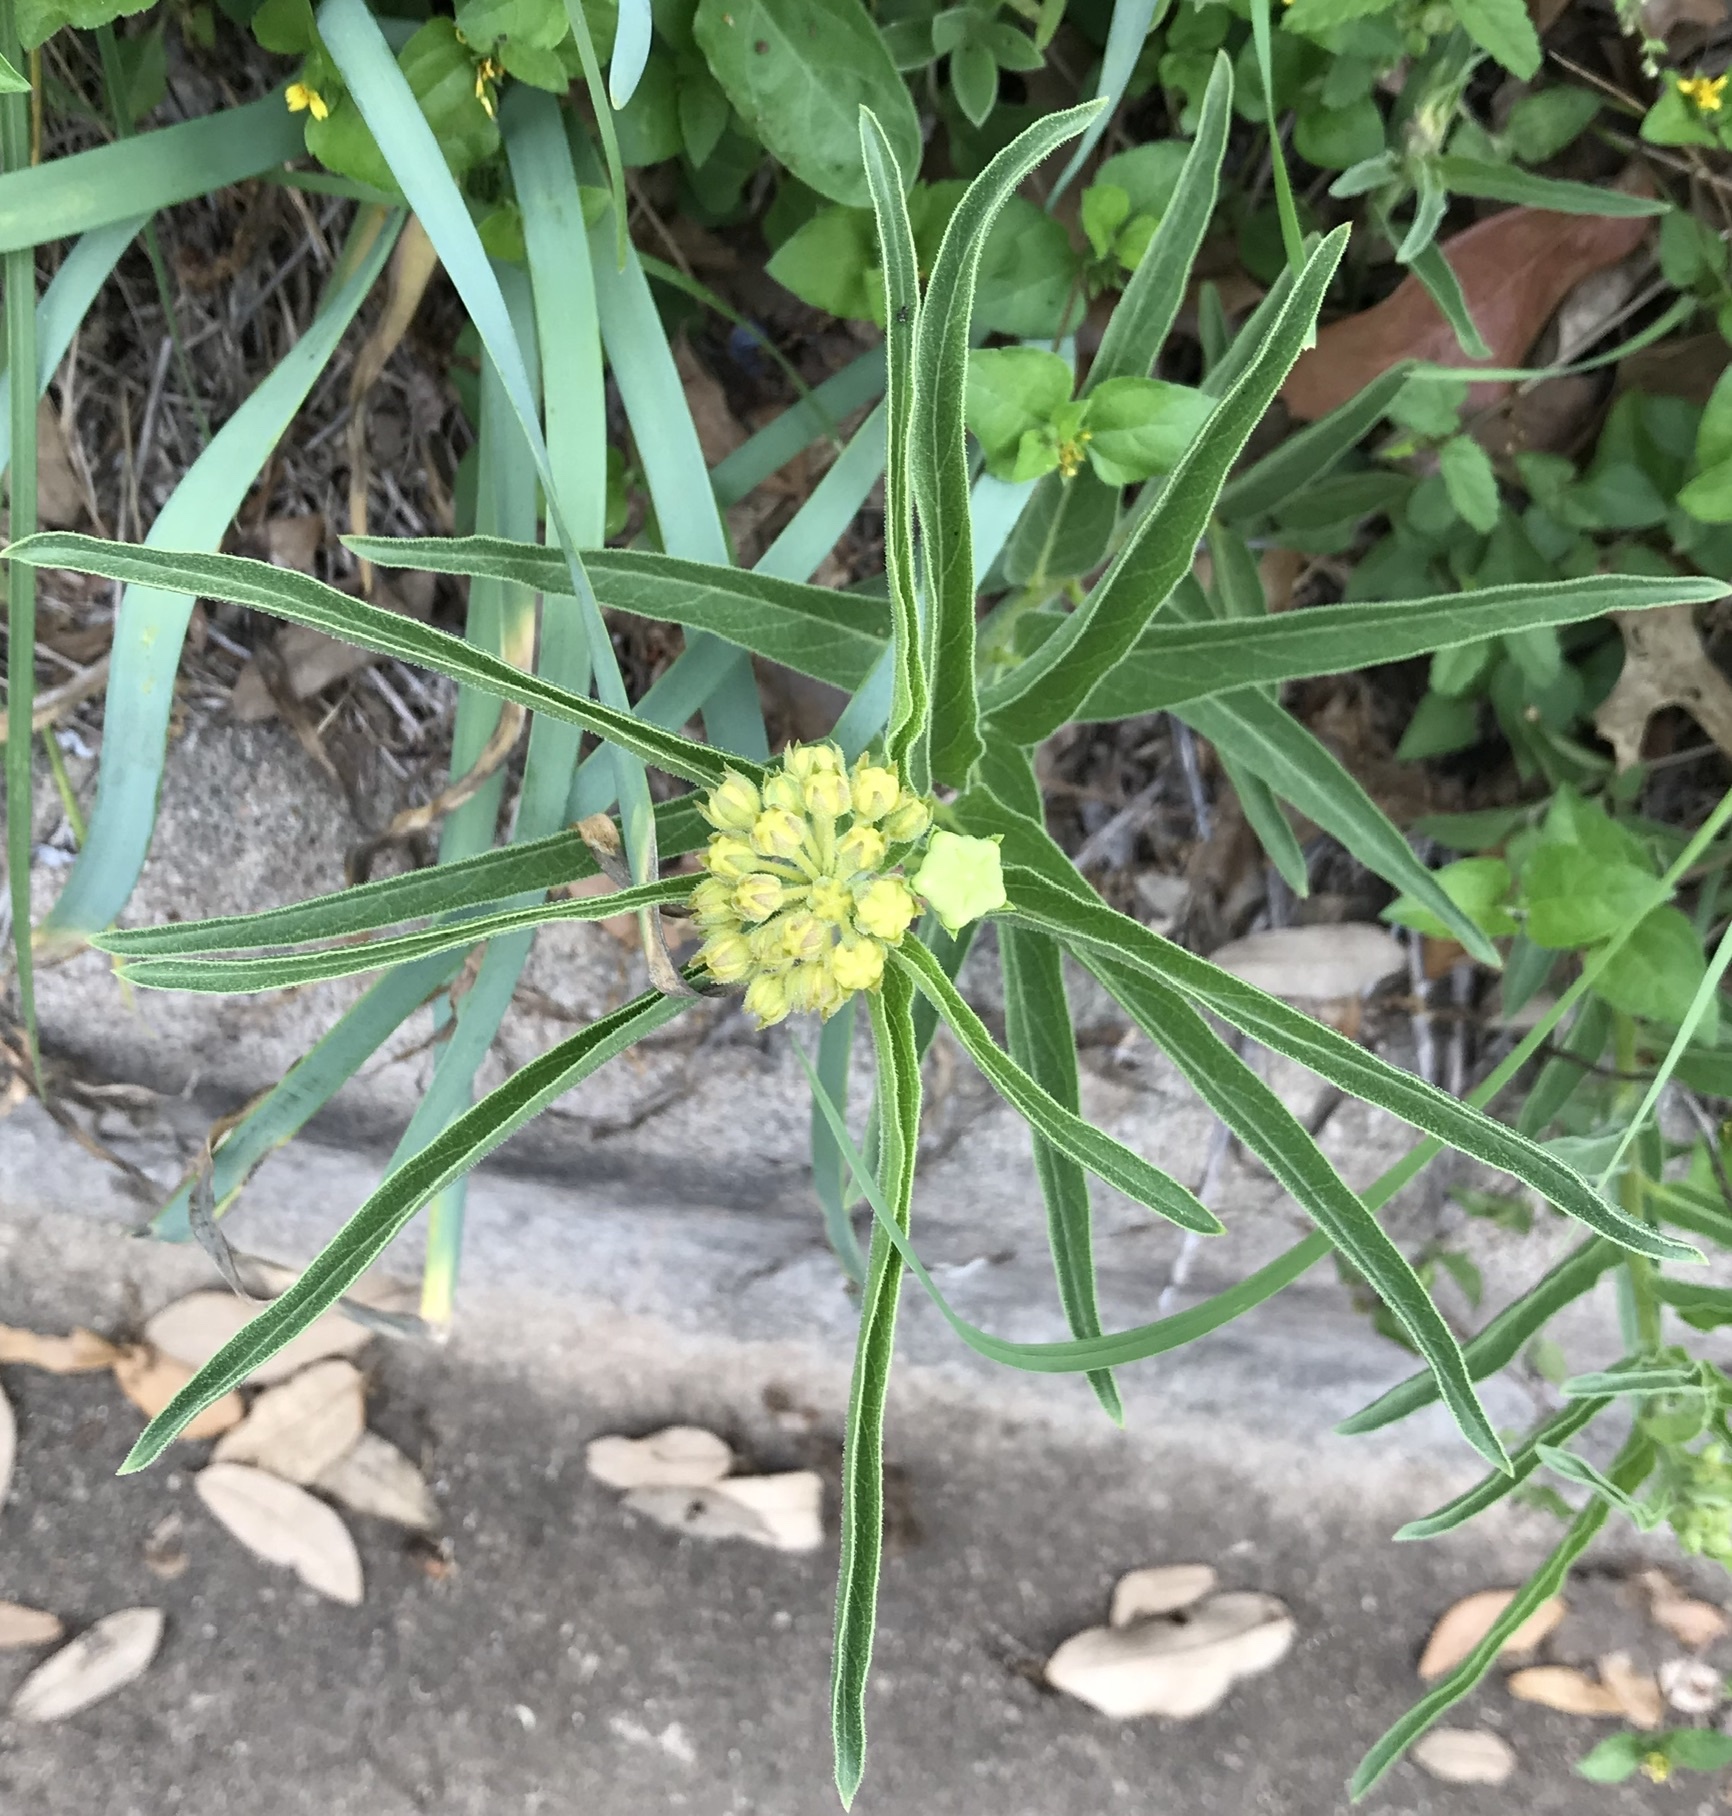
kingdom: Plantae
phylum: Tracheophyta
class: Magnoliopsida
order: Gentianales
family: Apocynaceae
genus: Asclepias
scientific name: Asclepias asperula
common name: Antelope horns
